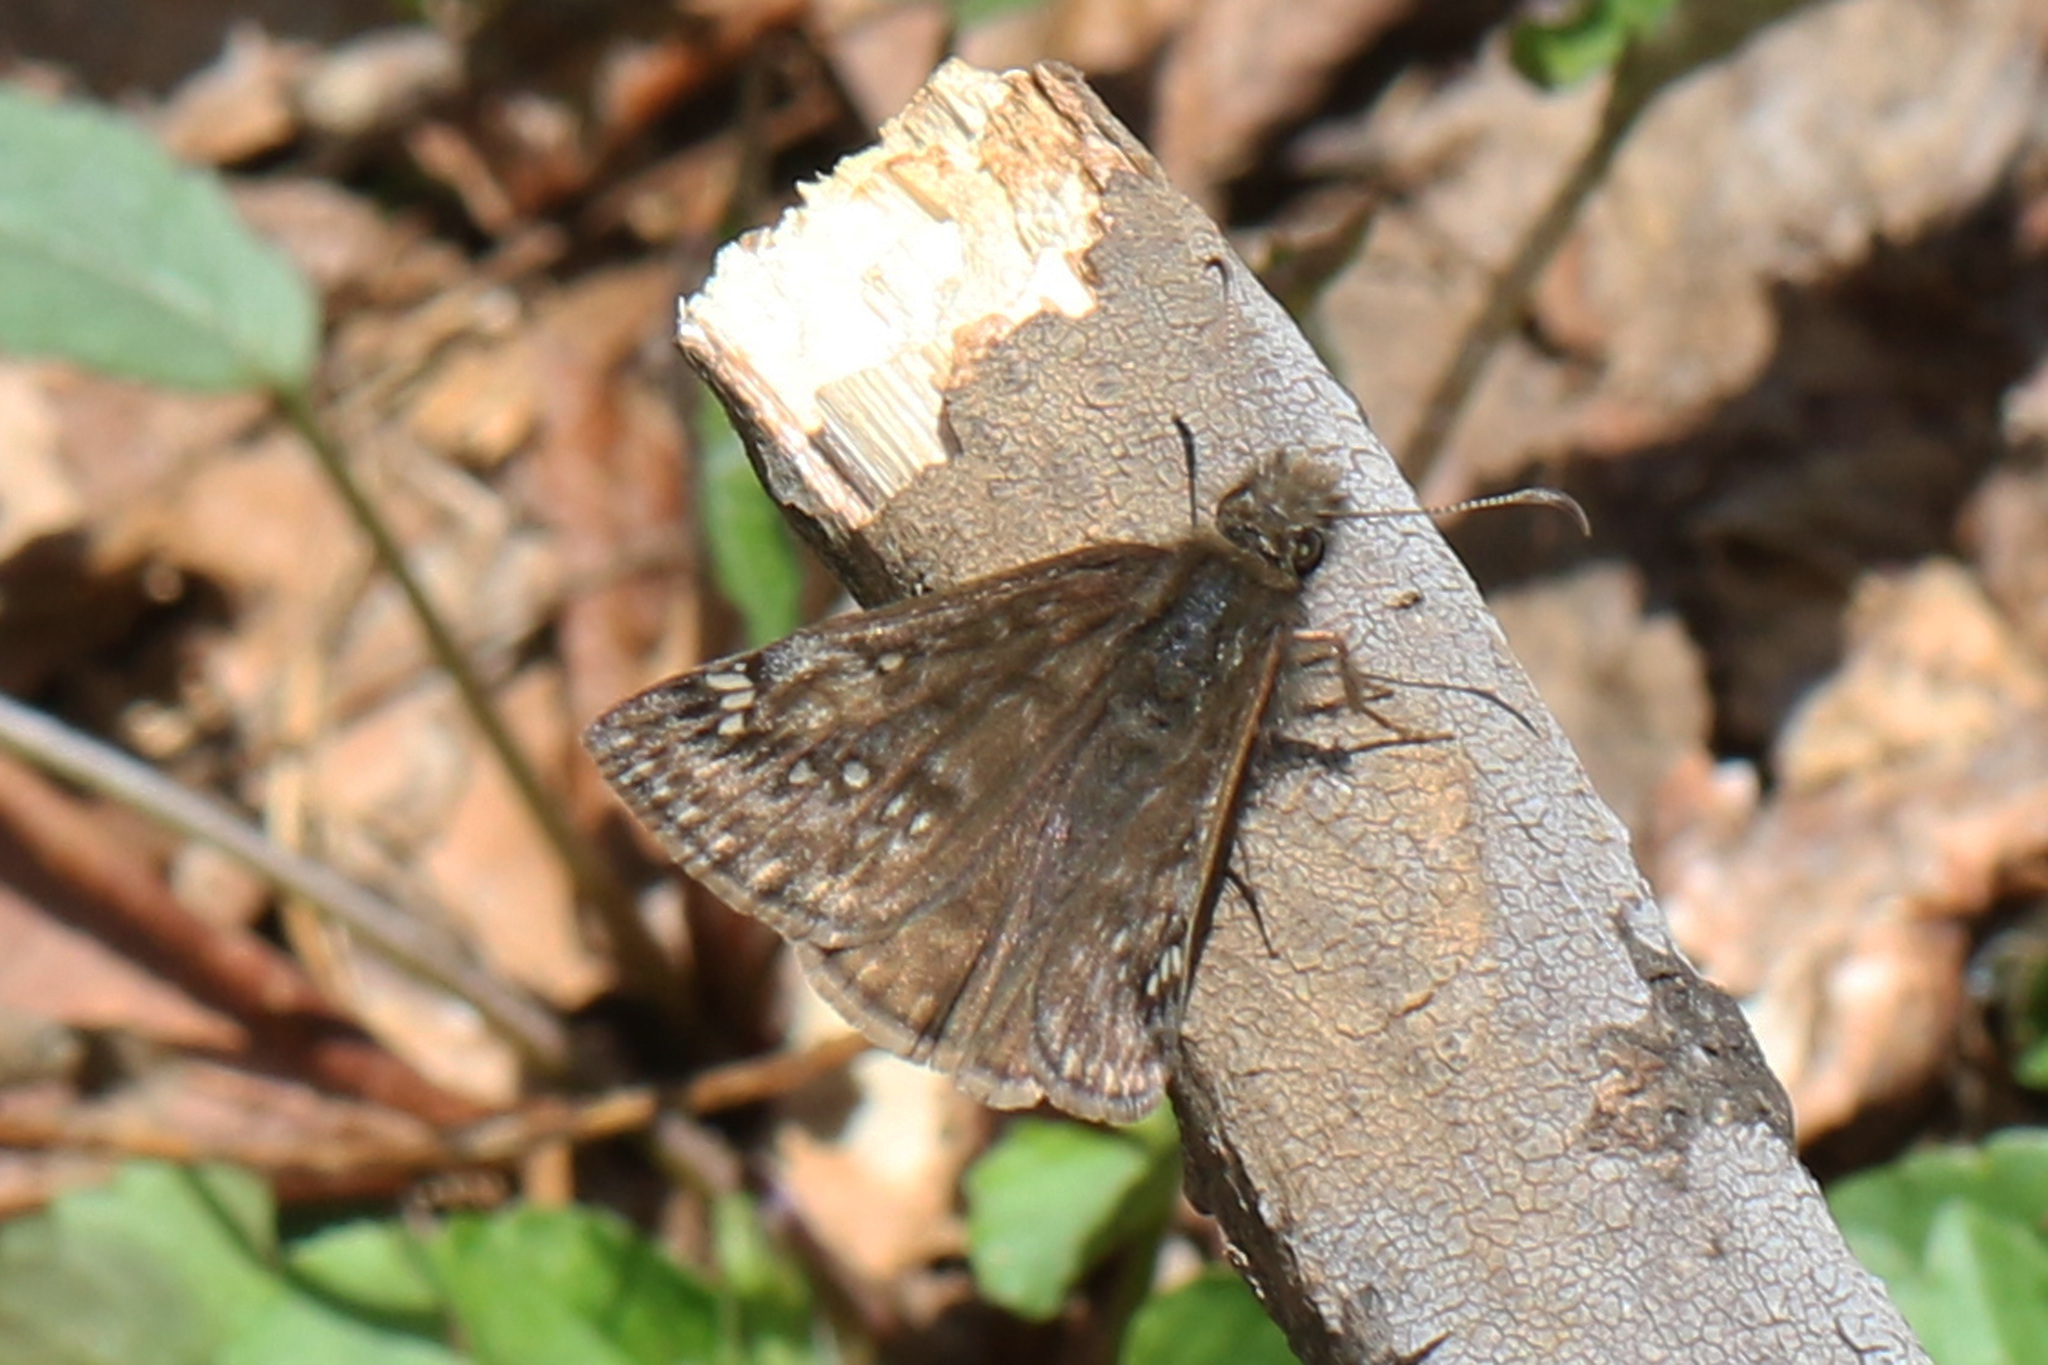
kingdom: Animalia
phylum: Arthropoda
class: Insecta
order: Lepidoptera
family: Hesperiidae
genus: Erynnis
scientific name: Erynnis juvenalis
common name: Juvenal's duskywing
